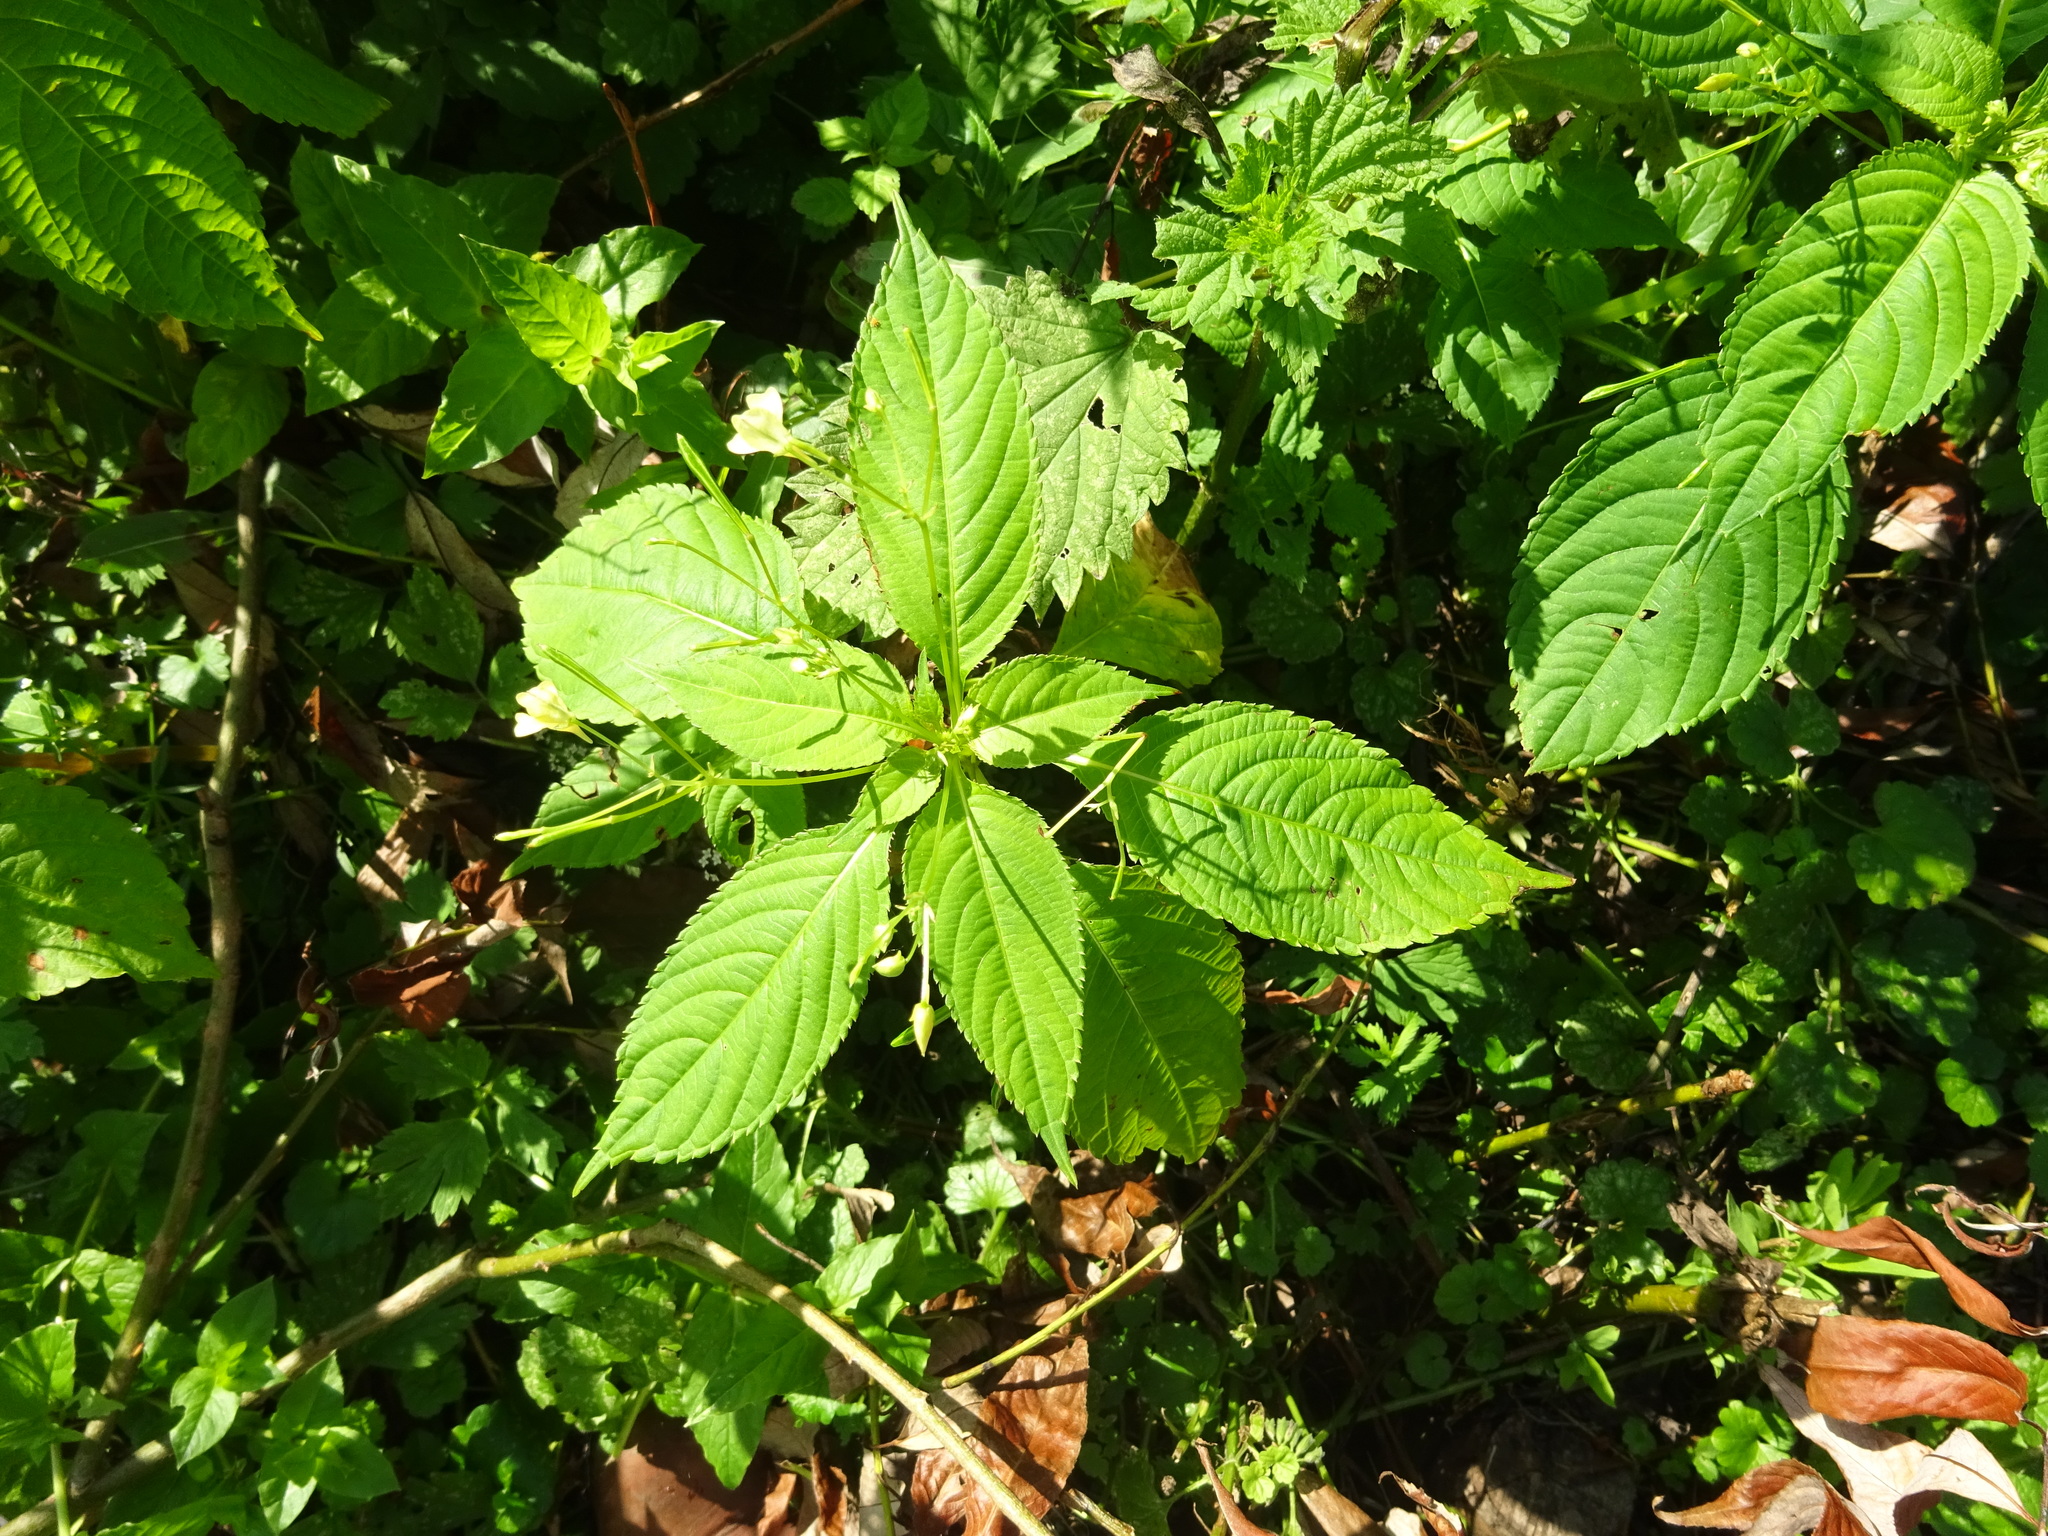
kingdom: Plantae
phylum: Tracheophyta
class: Magnoliopsida
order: Ericales
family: Balsaminaceae
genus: Impatiens
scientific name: Impatiens parviflora
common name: Small balsam
